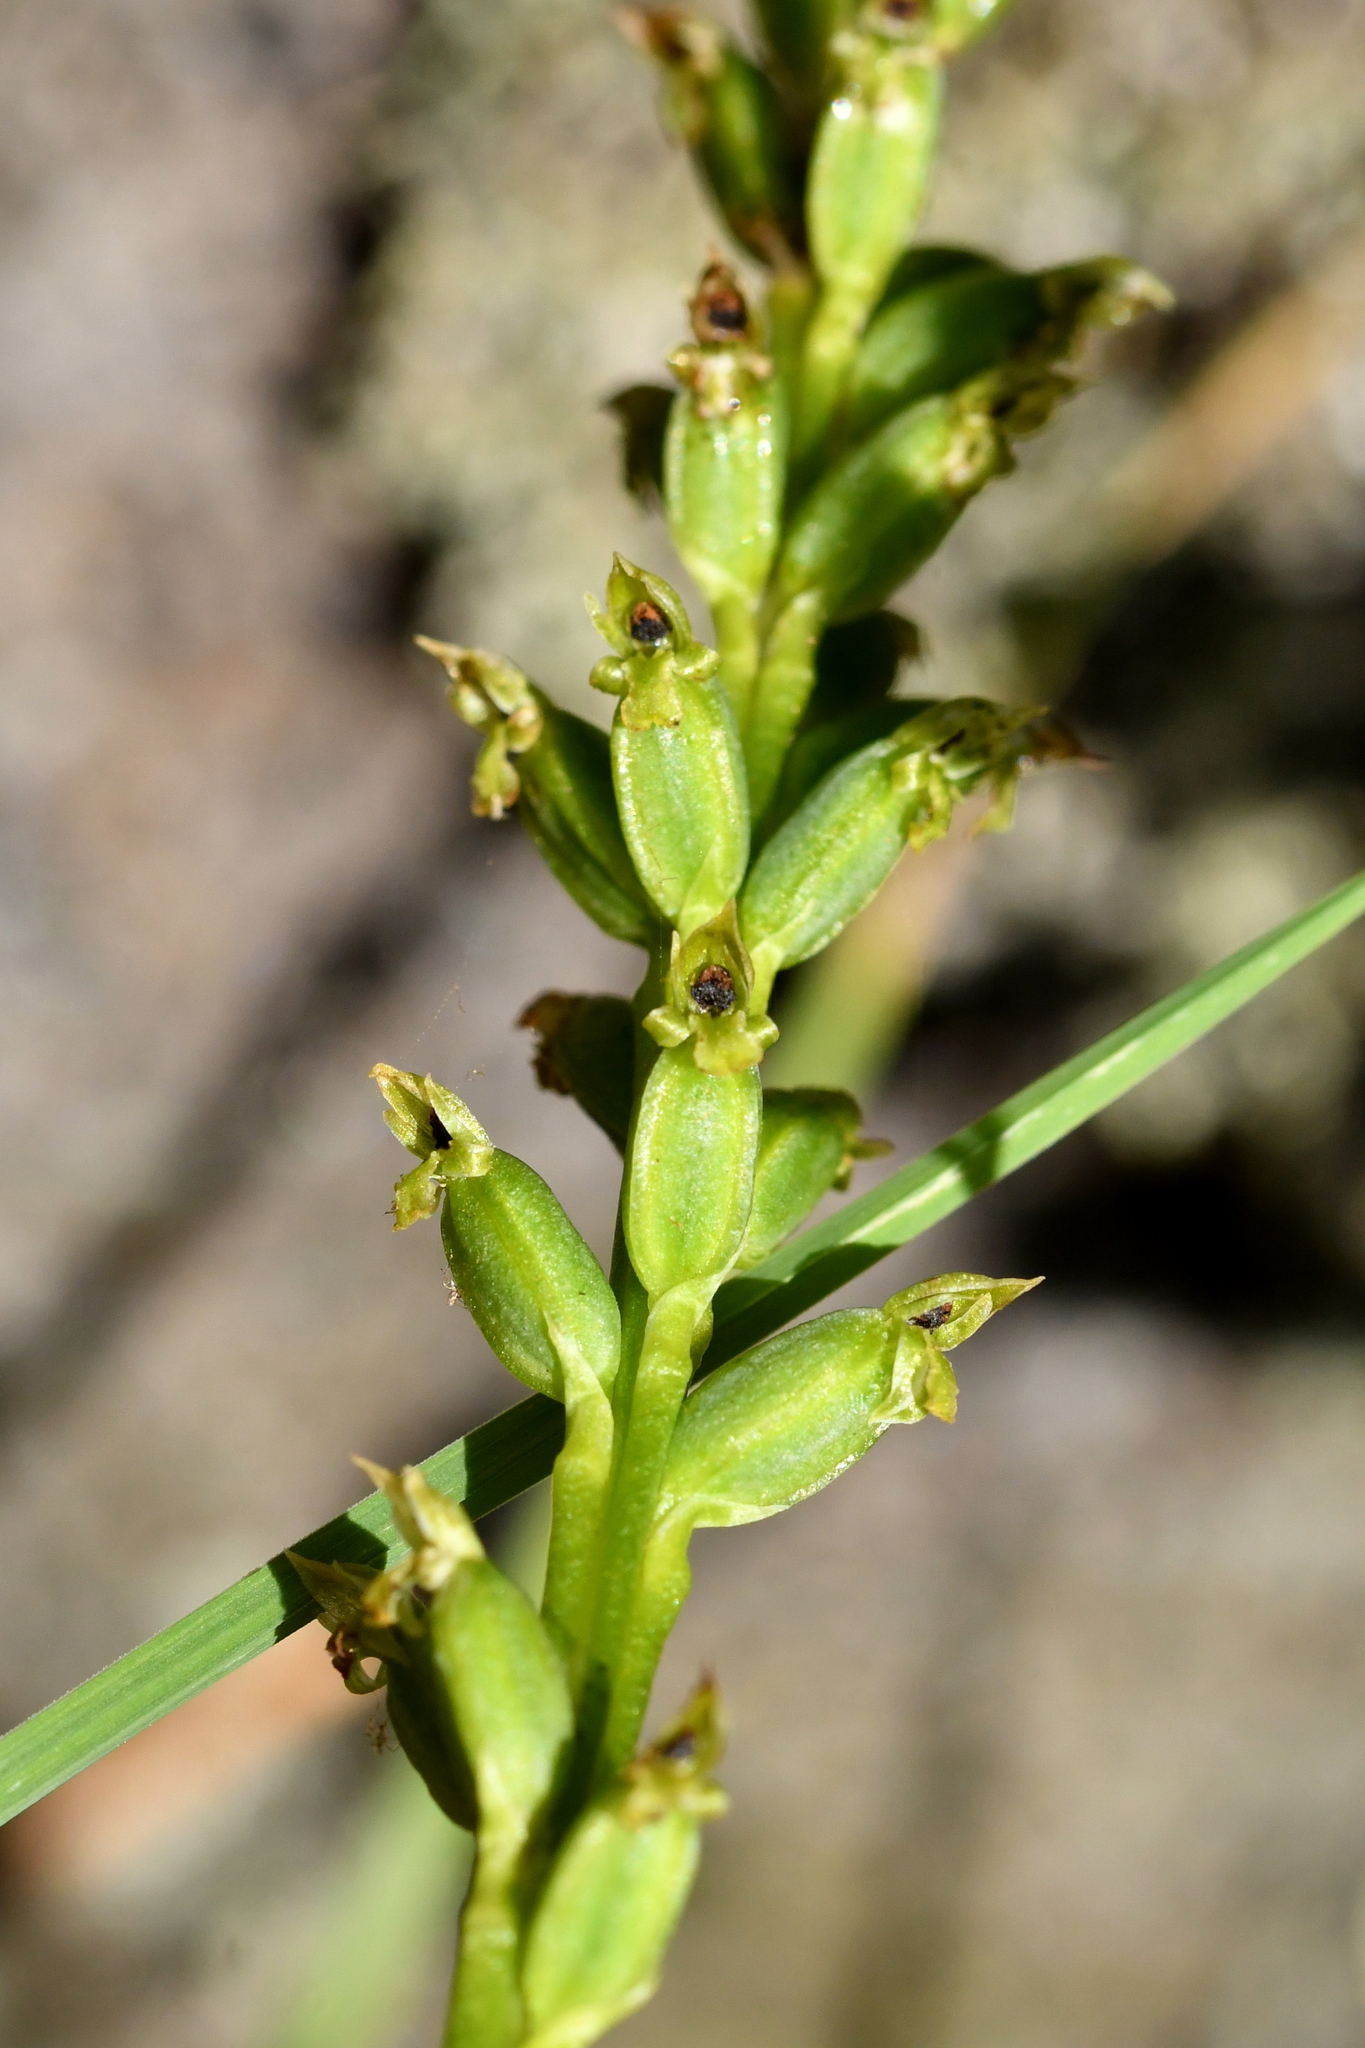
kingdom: Plantae
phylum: Tracheophyta
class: Liliopsida
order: Asparagales
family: Orchidaceae
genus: Microtis
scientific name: Microtis unifolia
